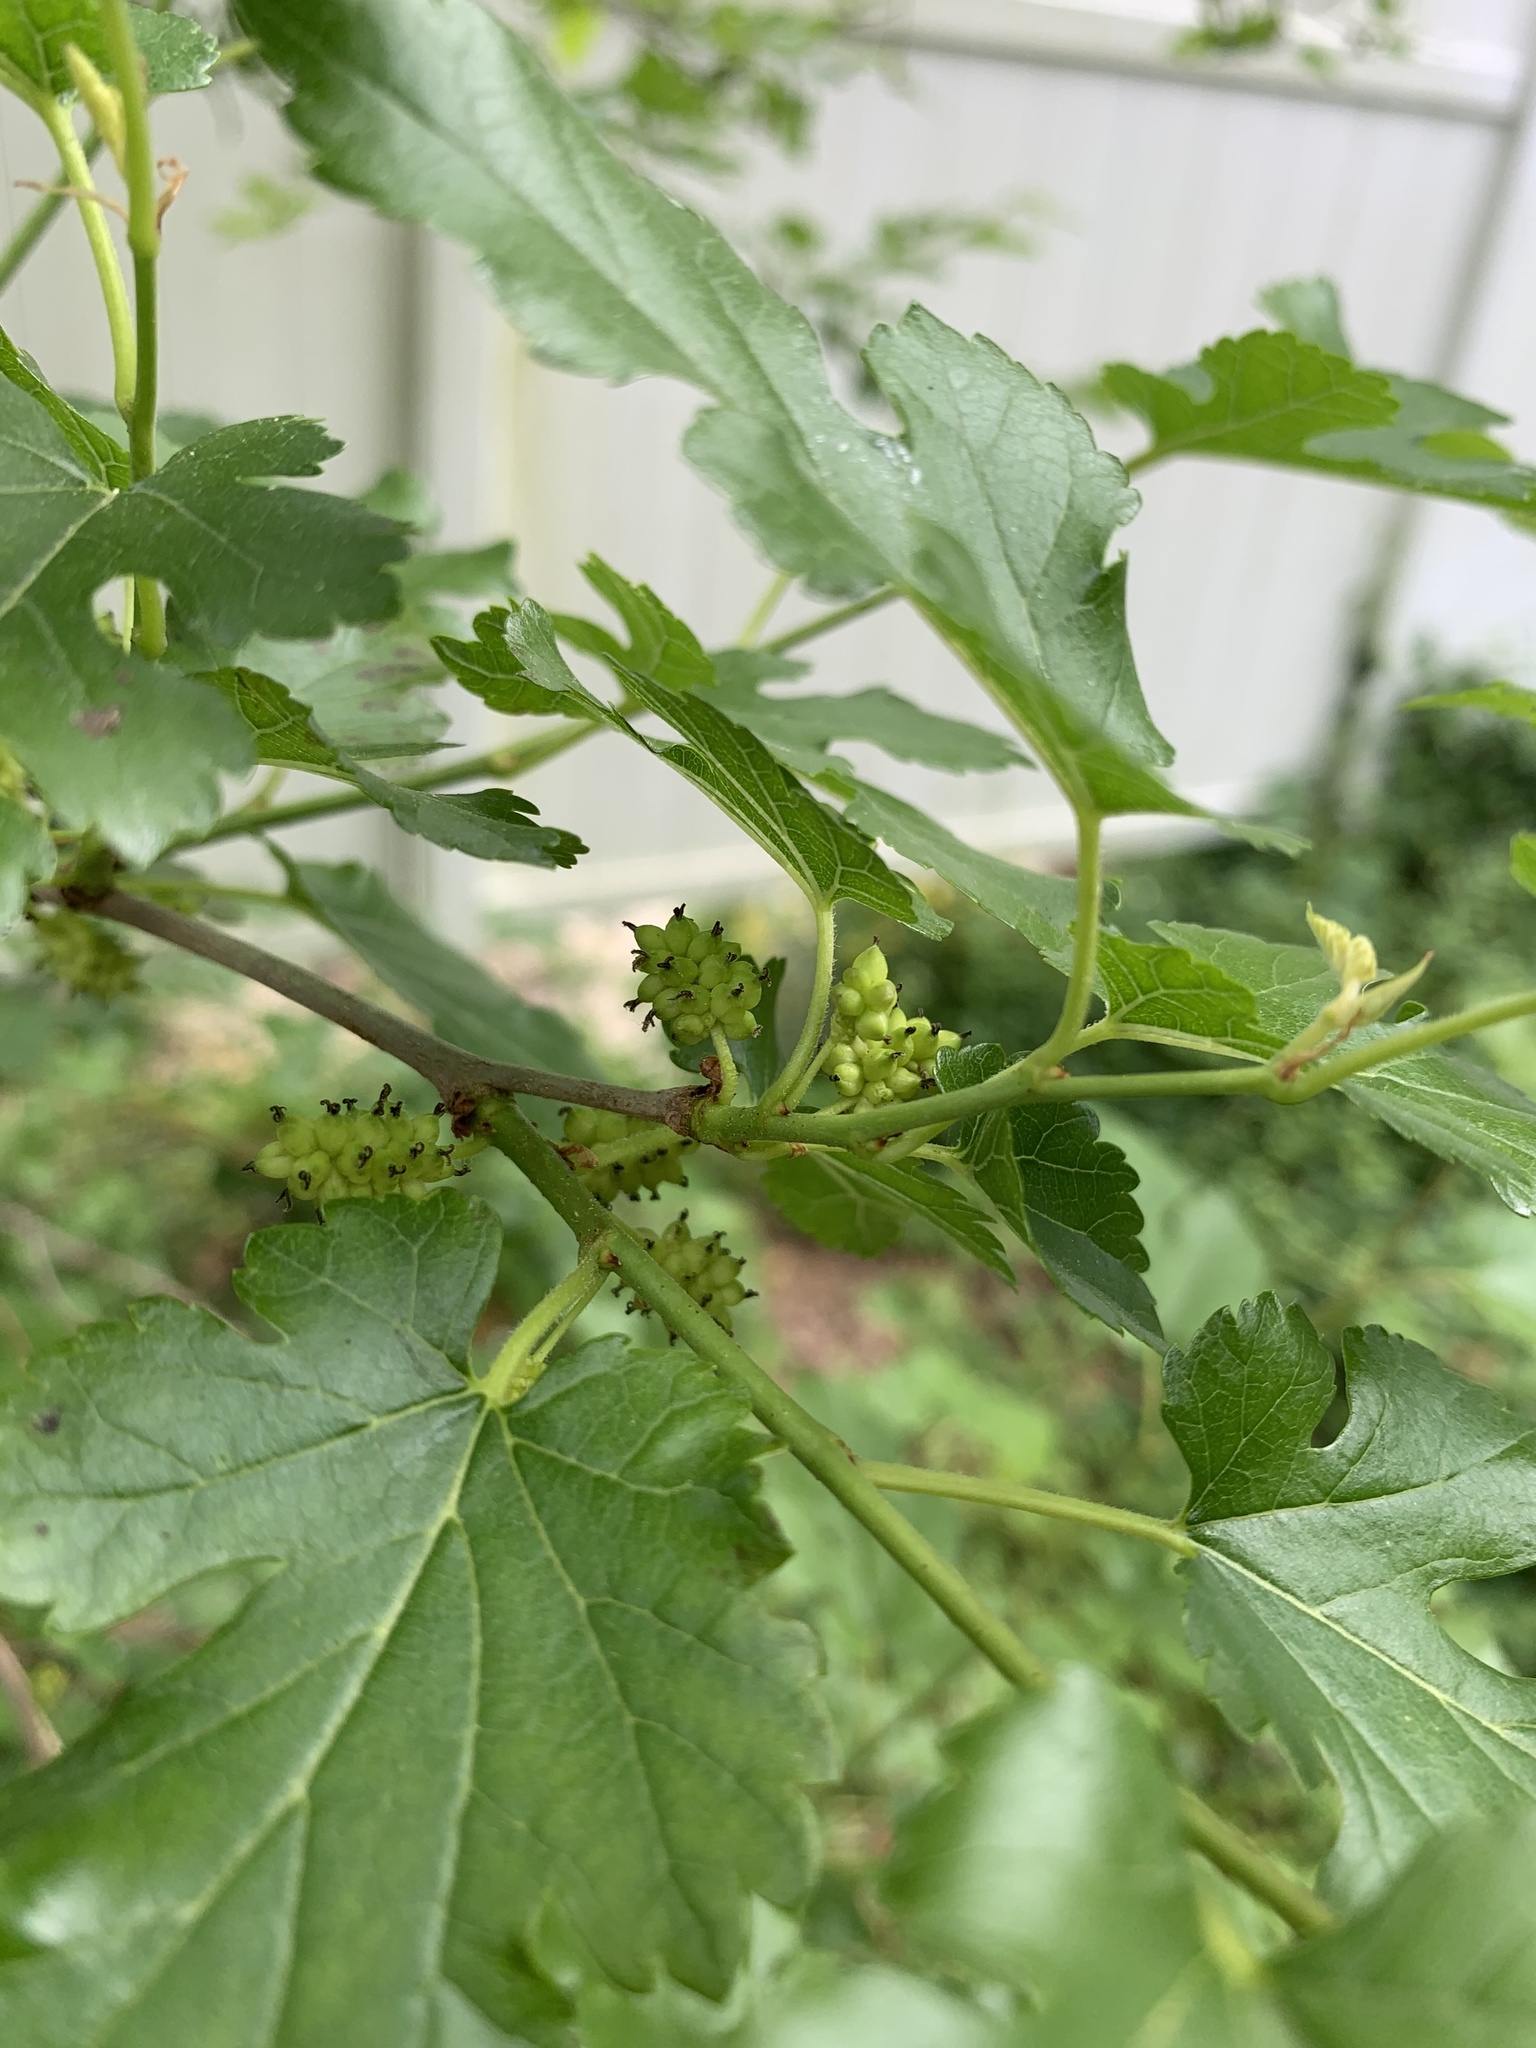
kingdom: Plantae
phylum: Tracheophyta
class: Magnoliopsida
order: Rosales
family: Moraceae
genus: Morus
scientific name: Morus alba
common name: White mulberry
